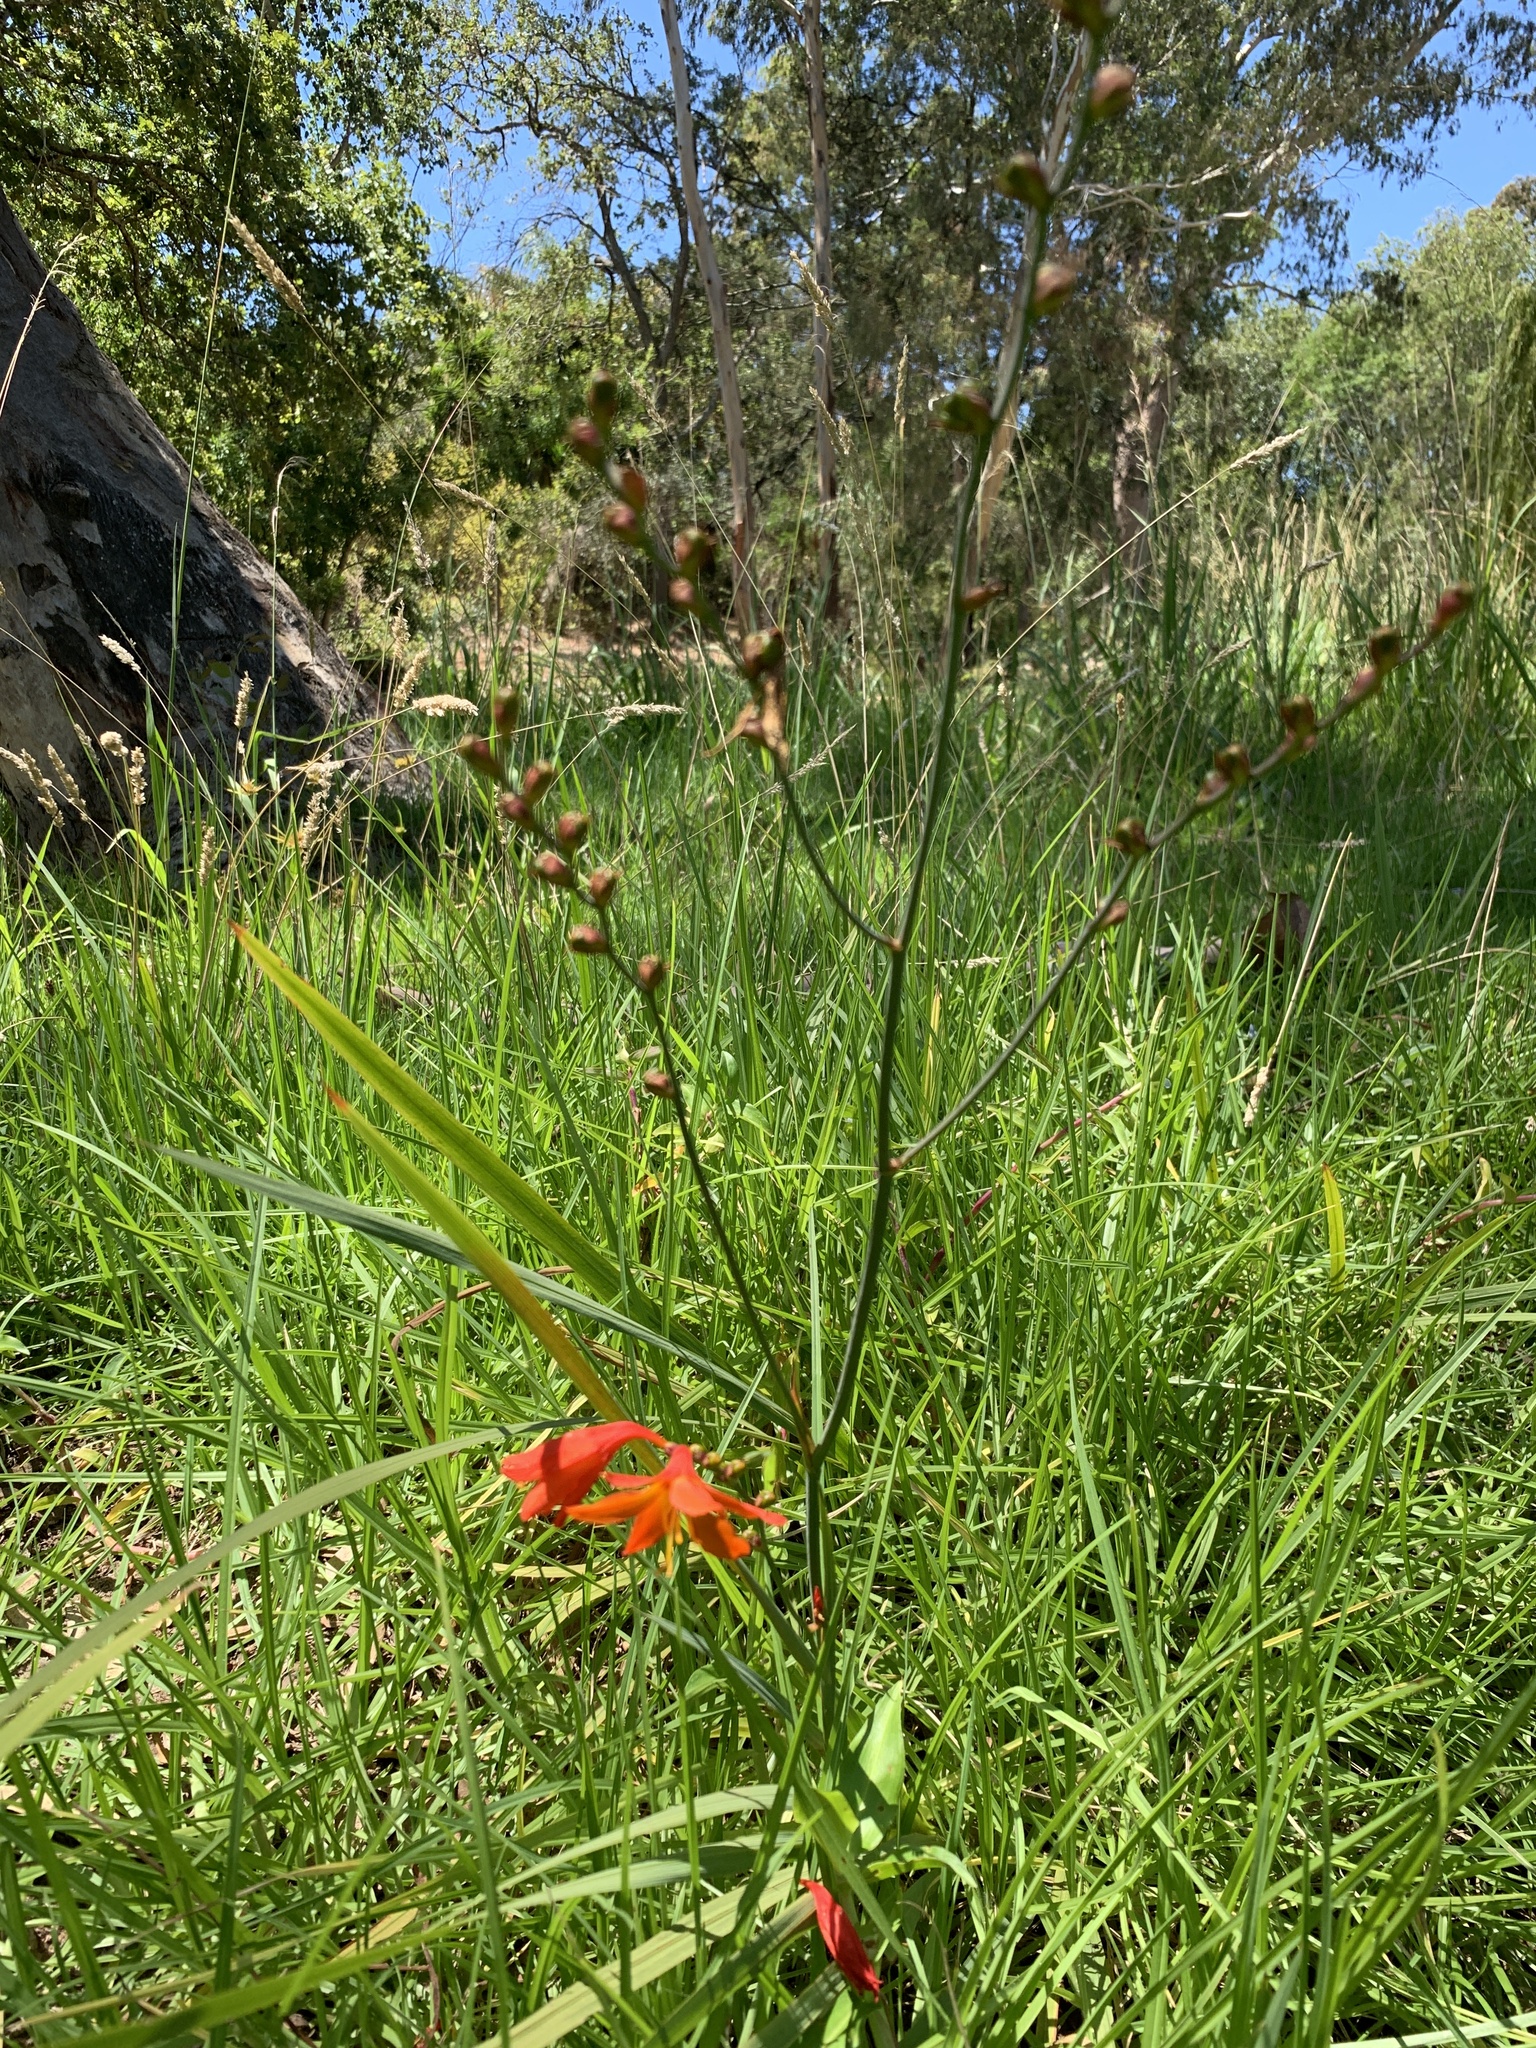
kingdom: Plantae
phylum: Tracheophyta
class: Liliopsida
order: Asparagales
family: Iridaceae
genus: Crocosmia
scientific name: Crocosmia crocosmiiflora
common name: Montbretia
